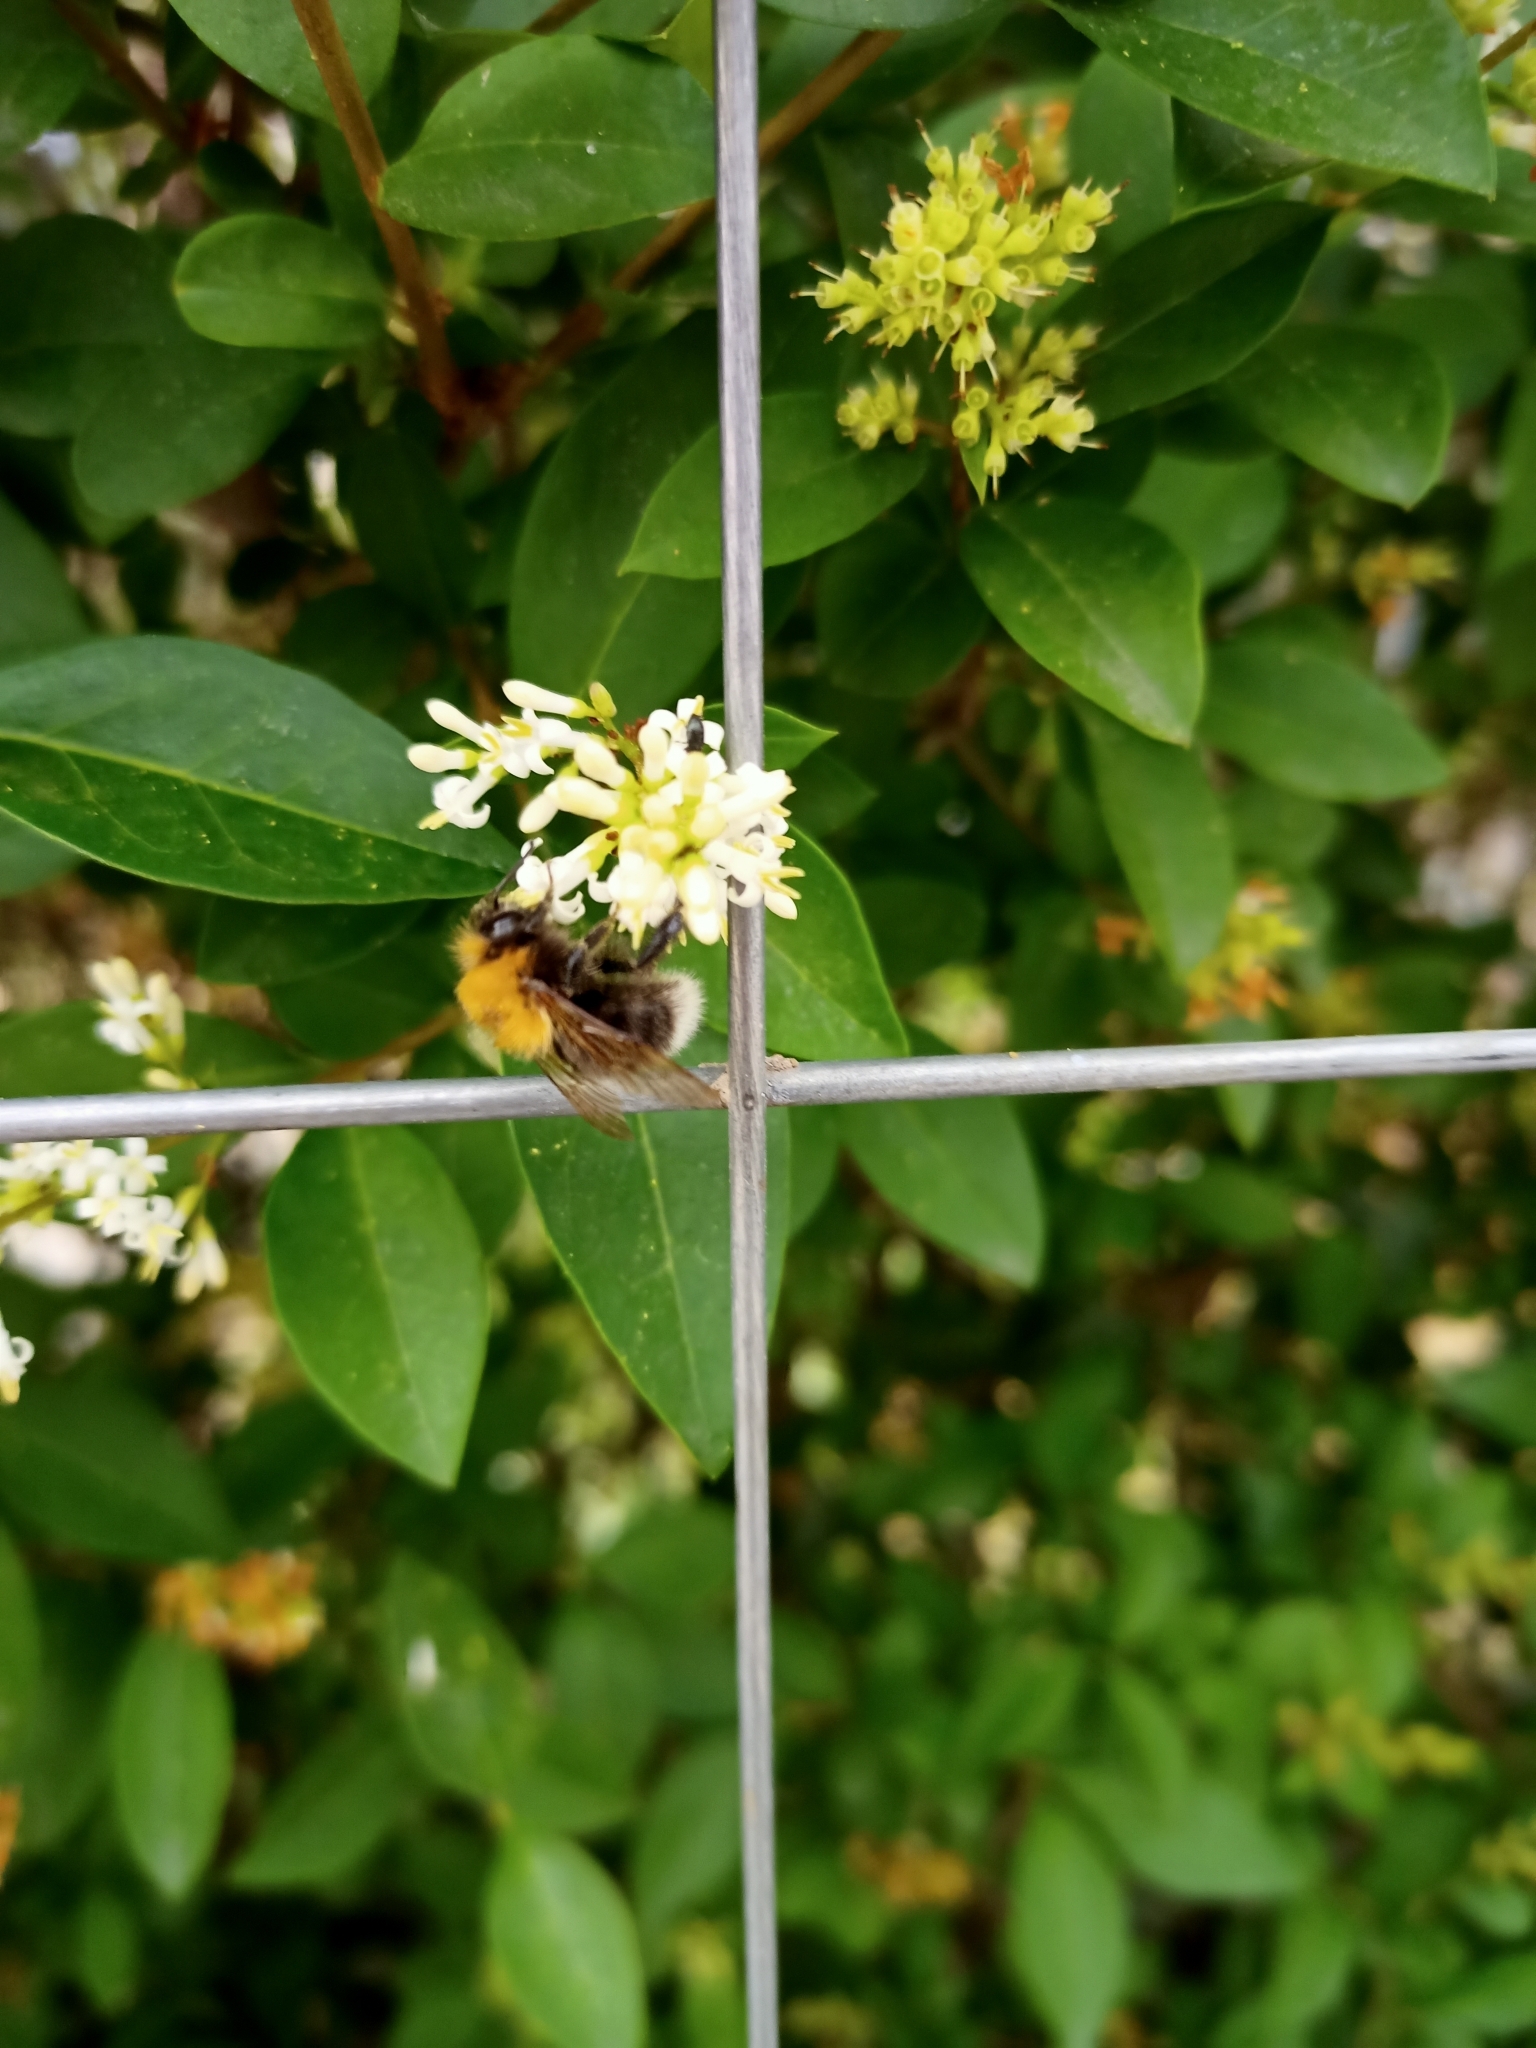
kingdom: Animalia
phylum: Arthropoda
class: Insecta
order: Hymenoptera
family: Apidae
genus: Bombus
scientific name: Bombus hypnorum
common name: New garden bumblebee
